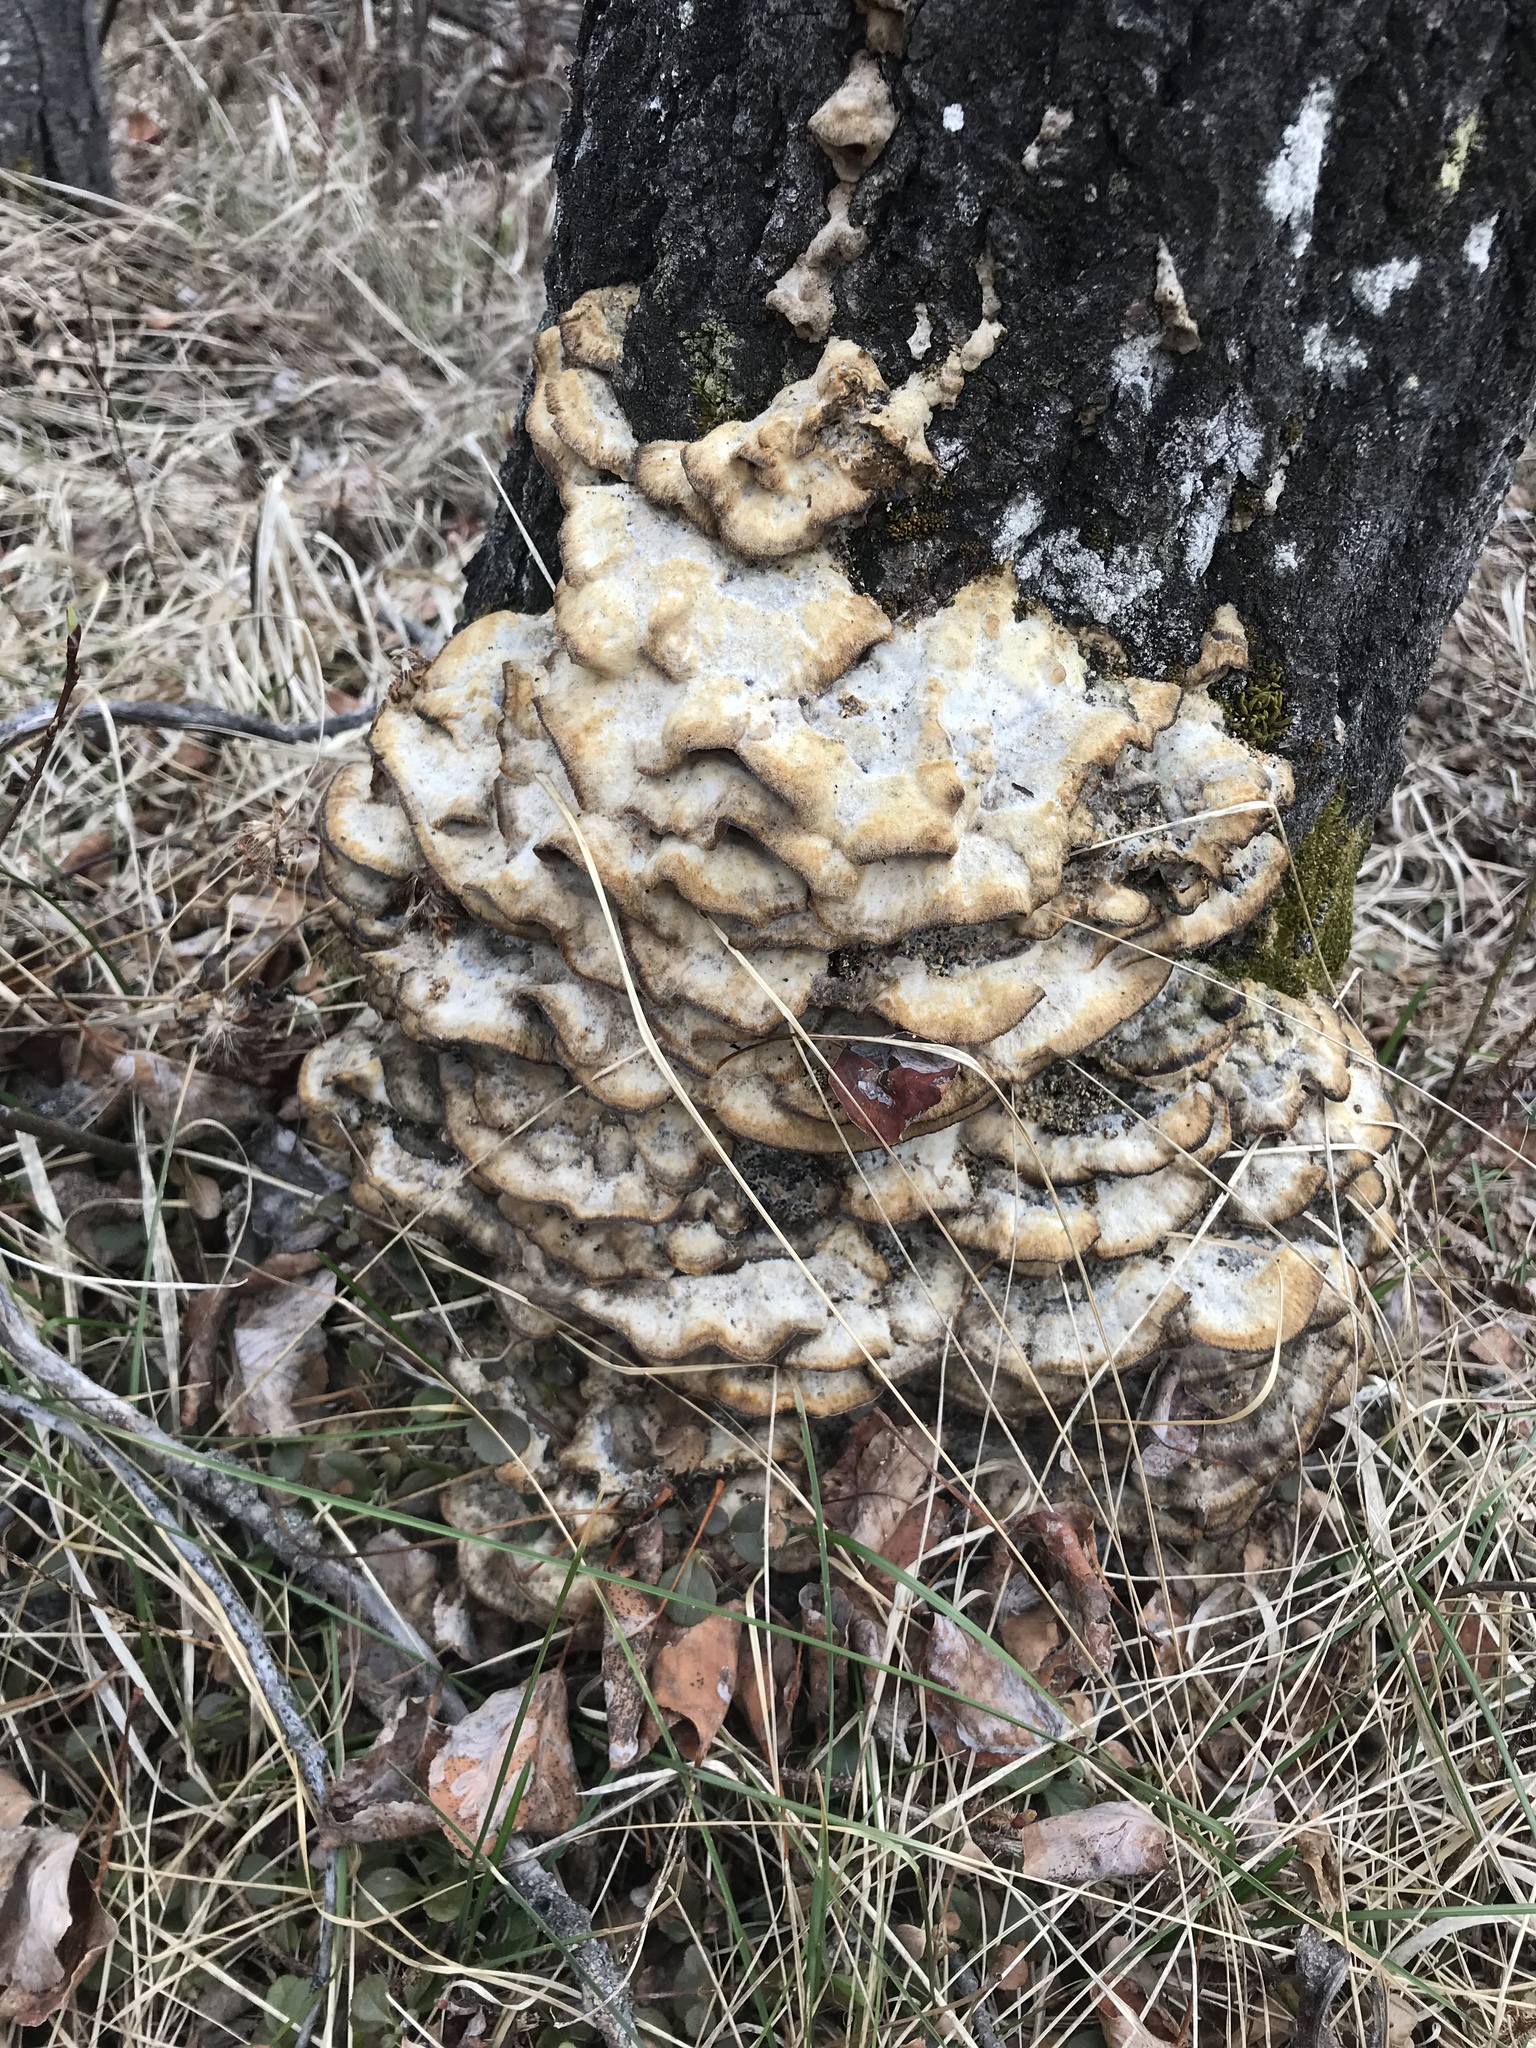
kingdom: Fungi
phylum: Basidiomycota
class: Agaricomycetes
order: Polyporales
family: Phanerochaetaceae
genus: Bjerkandera
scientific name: Bjerkandera adusta
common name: Smoky bracket
